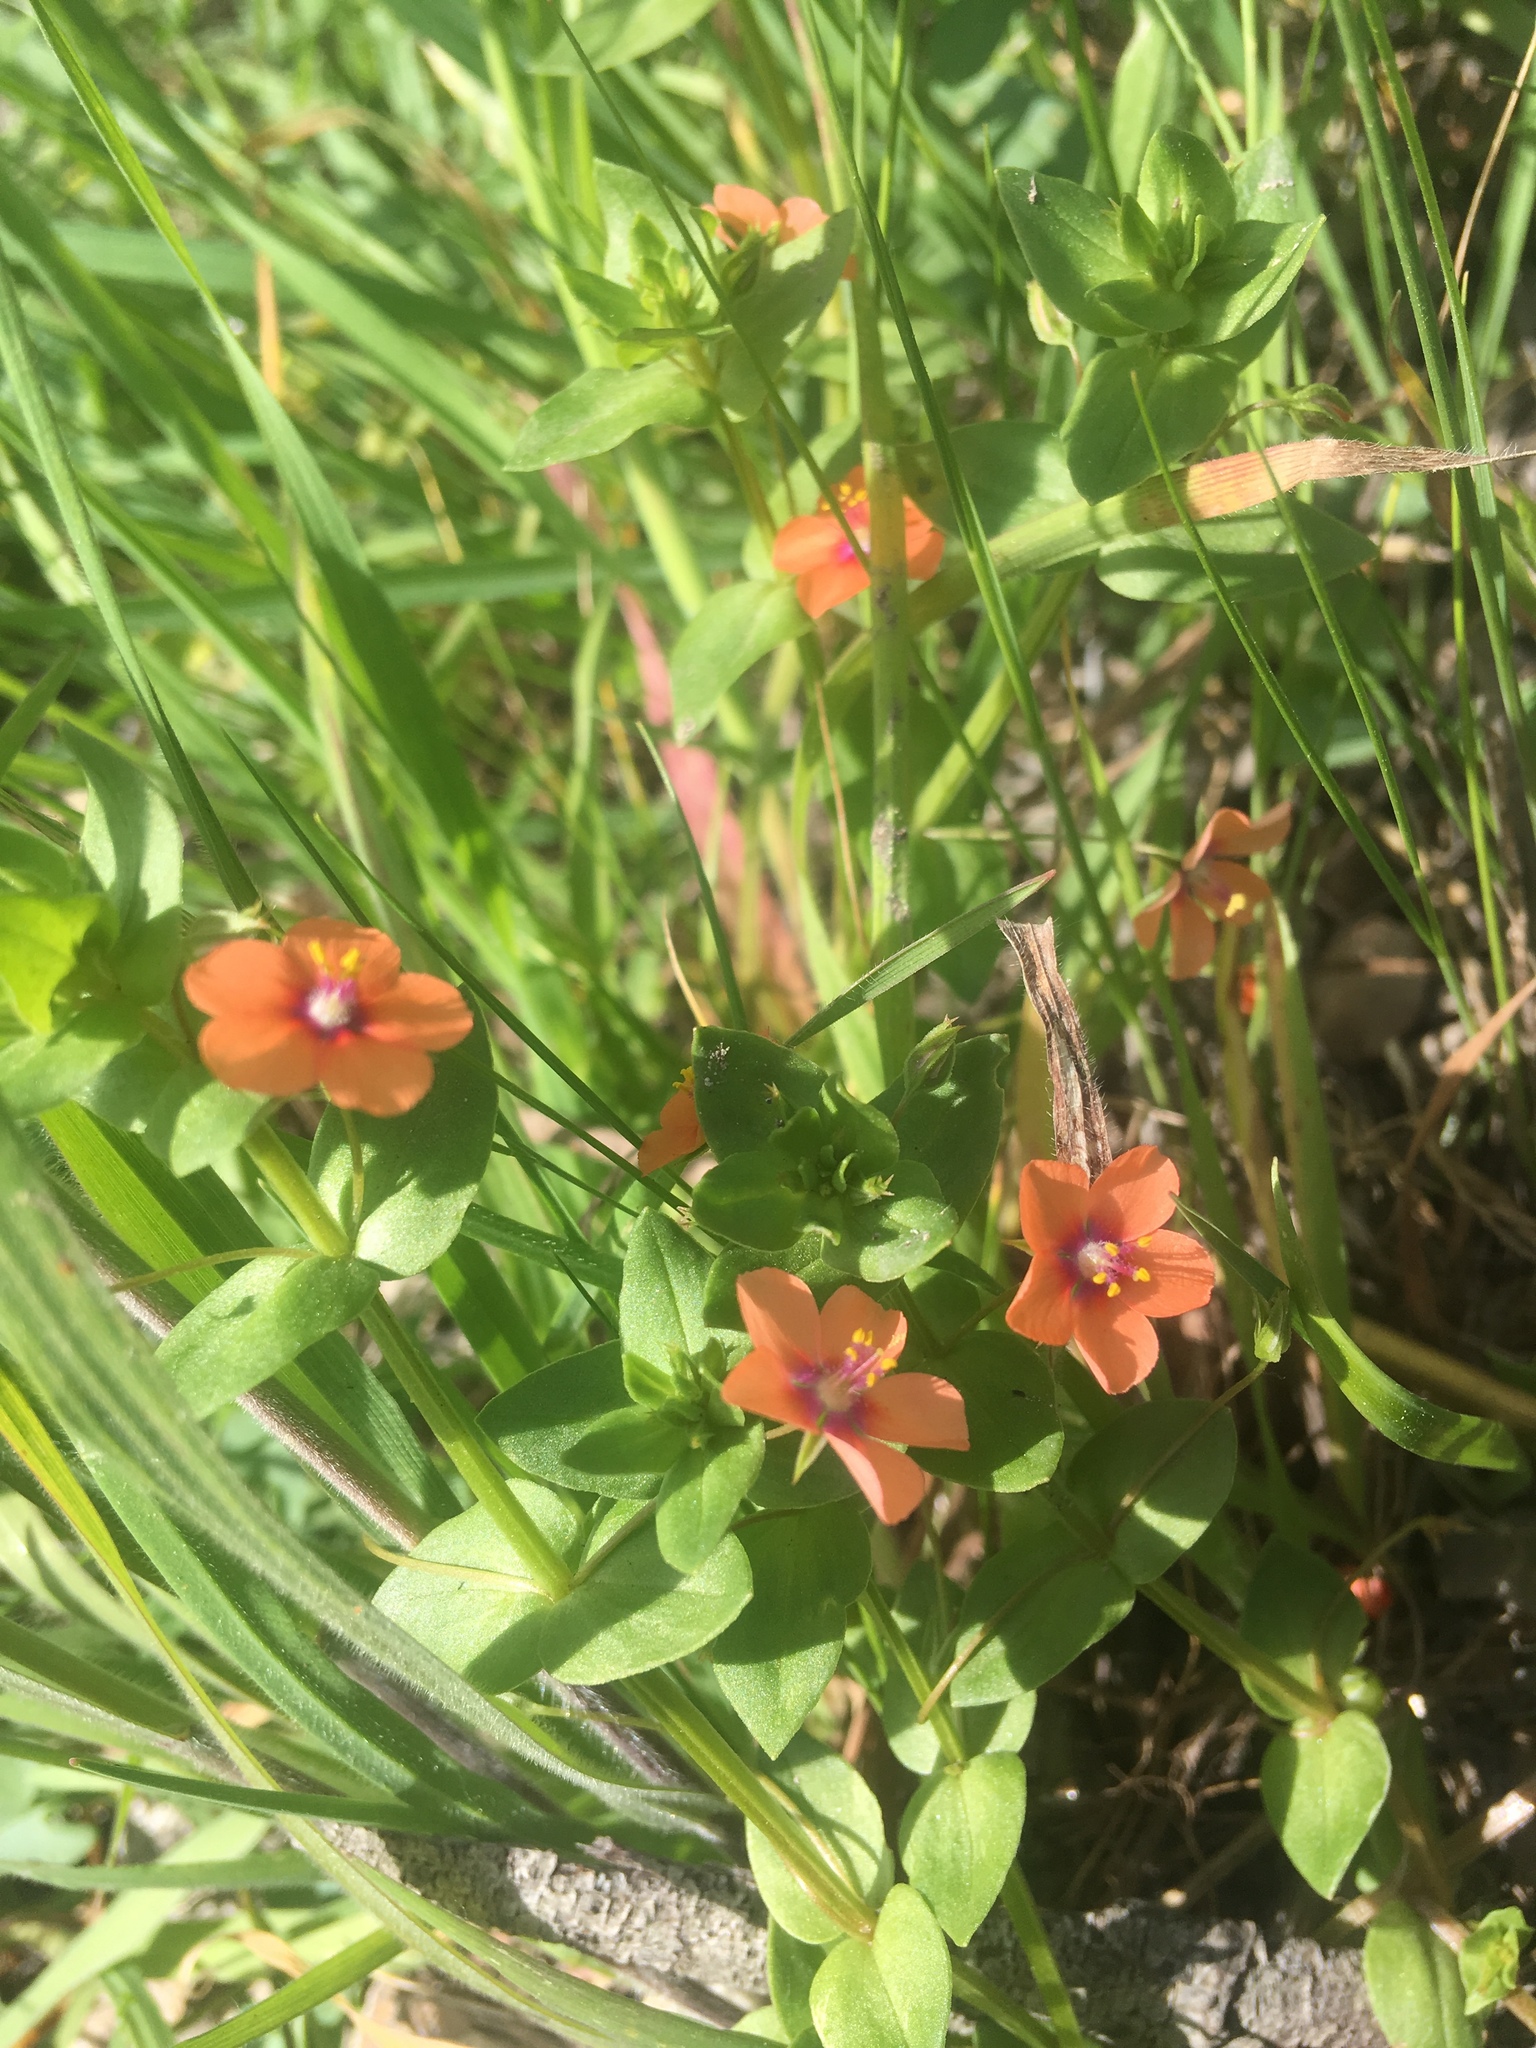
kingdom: Plantae
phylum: Tracheophyta
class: Magnoliopsida
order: Ericales
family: Primulaceae
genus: Lysimachia
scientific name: Lysimachia arvensis
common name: Scarlet pimpernel
